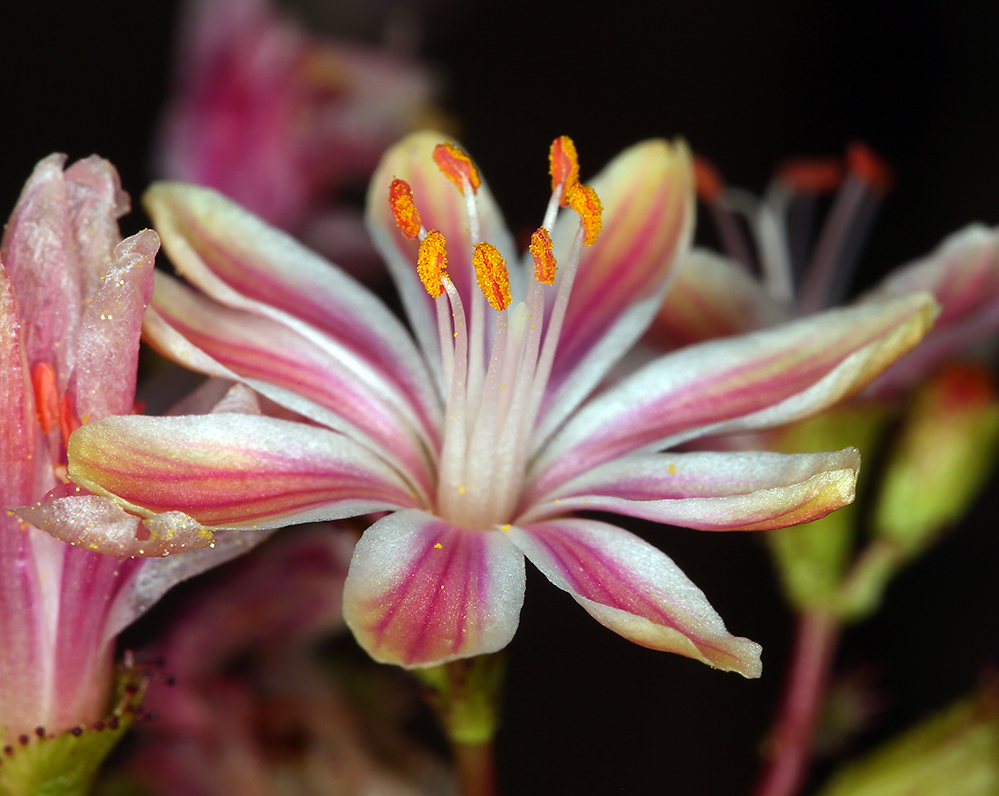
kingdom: Plantae
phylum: Tracheophyta
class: Magnoliopsida
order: Caryophyllales
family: Montiaceae
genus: Lewisia
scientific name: Lewisia cotyledon
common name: Siskiyou lewisia
